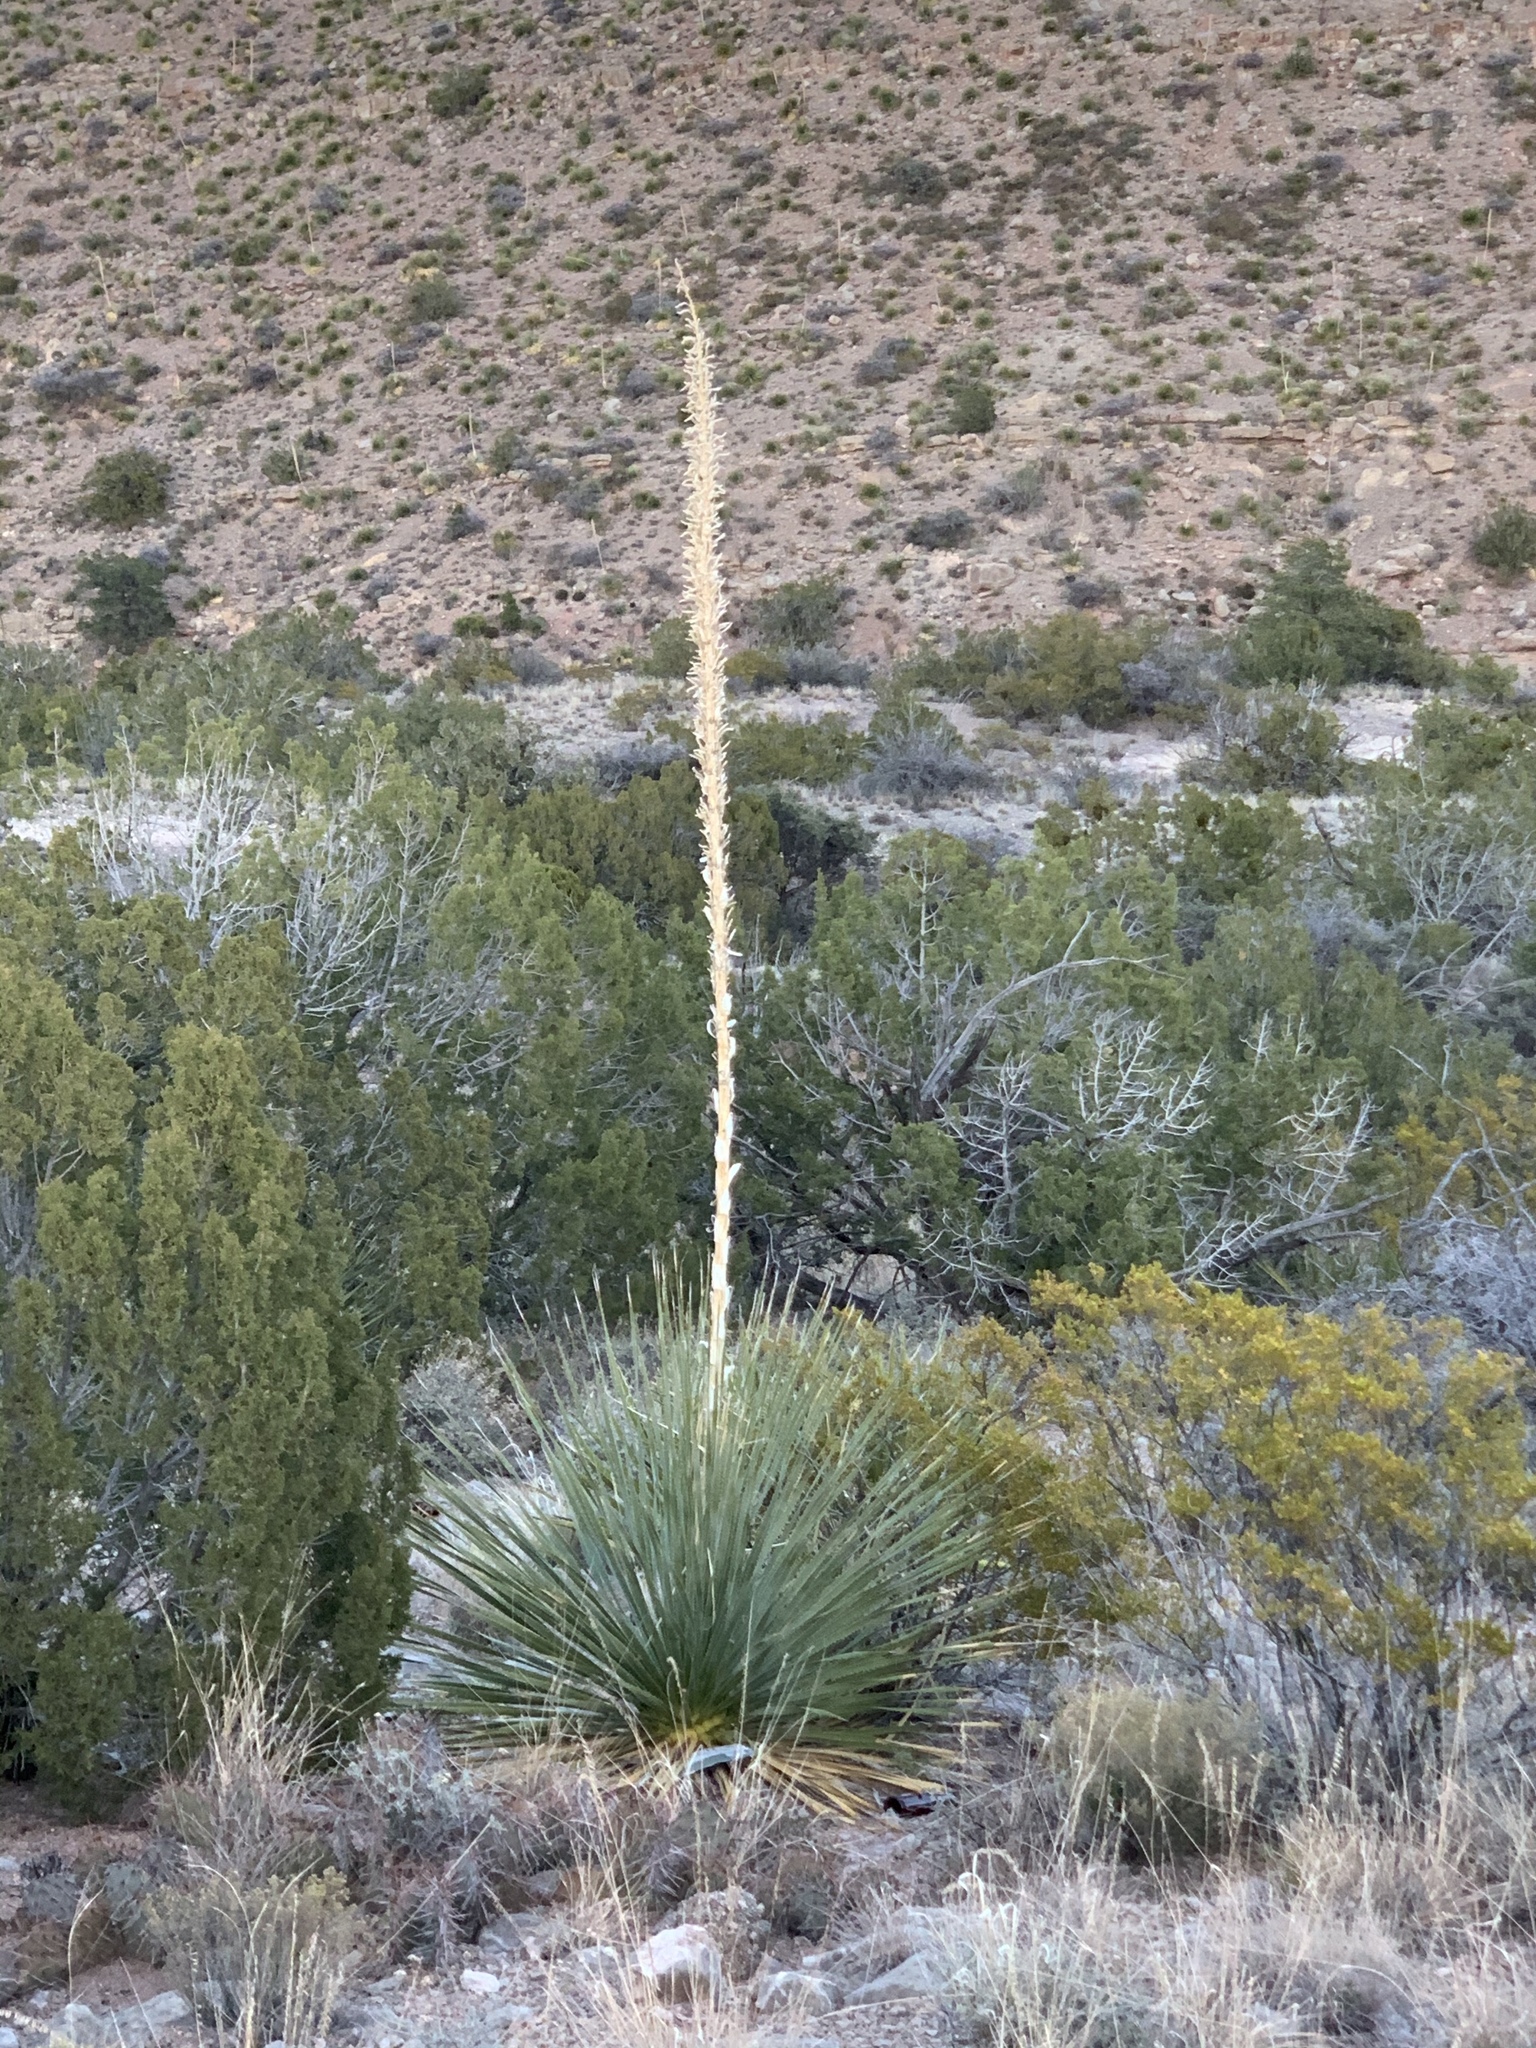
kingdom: Plantae
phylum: Tracheophyta
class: Liliopsida
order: Asparagales
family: Asparagaceae
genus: Dasylirion
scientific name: Dasylirion wheeleri
